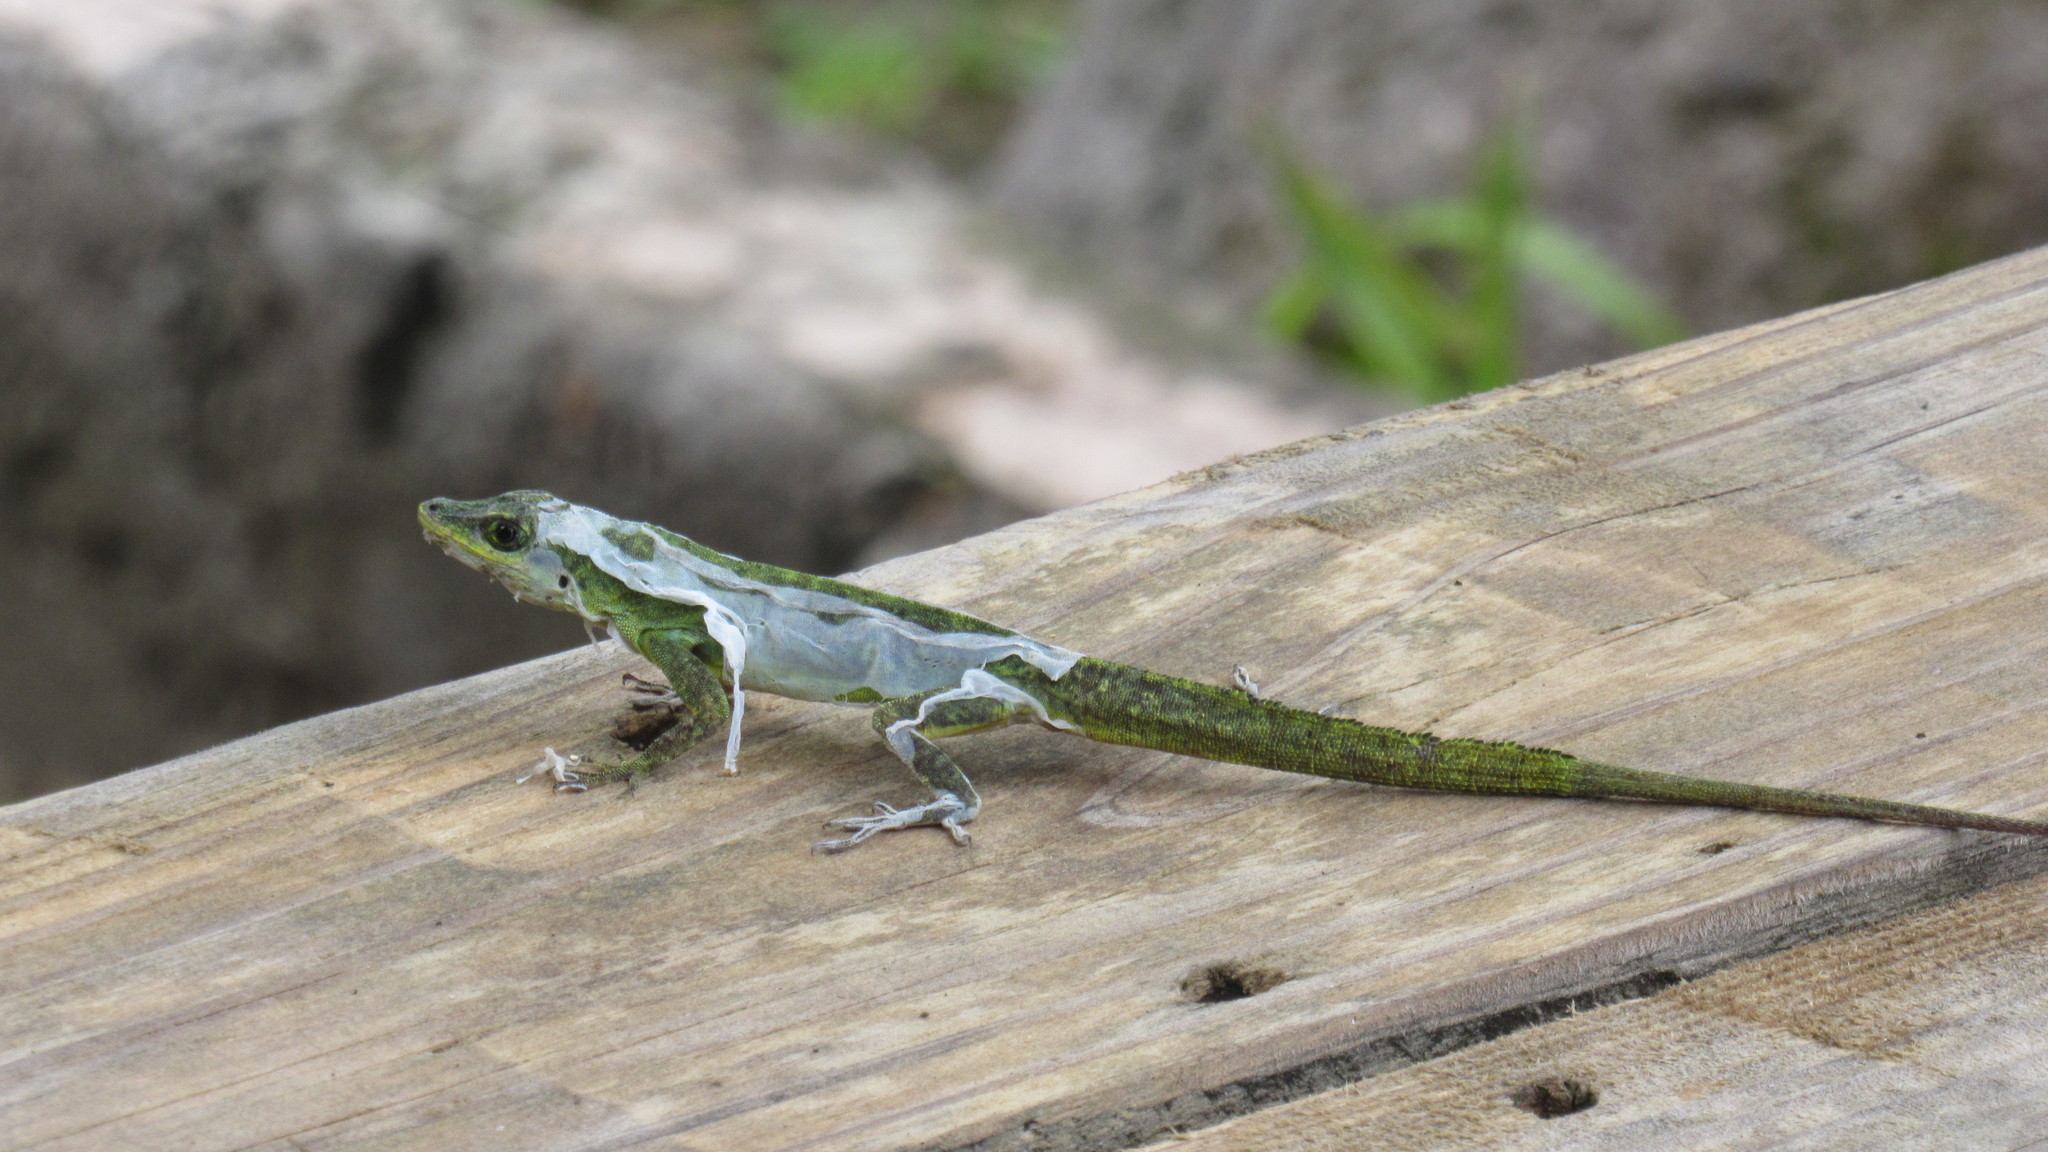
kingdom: Animalia
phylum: Chordata
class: Squamata
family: Dactyloidae
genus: Anolis
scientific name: Anolis richardii
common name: Grenada tree anole
